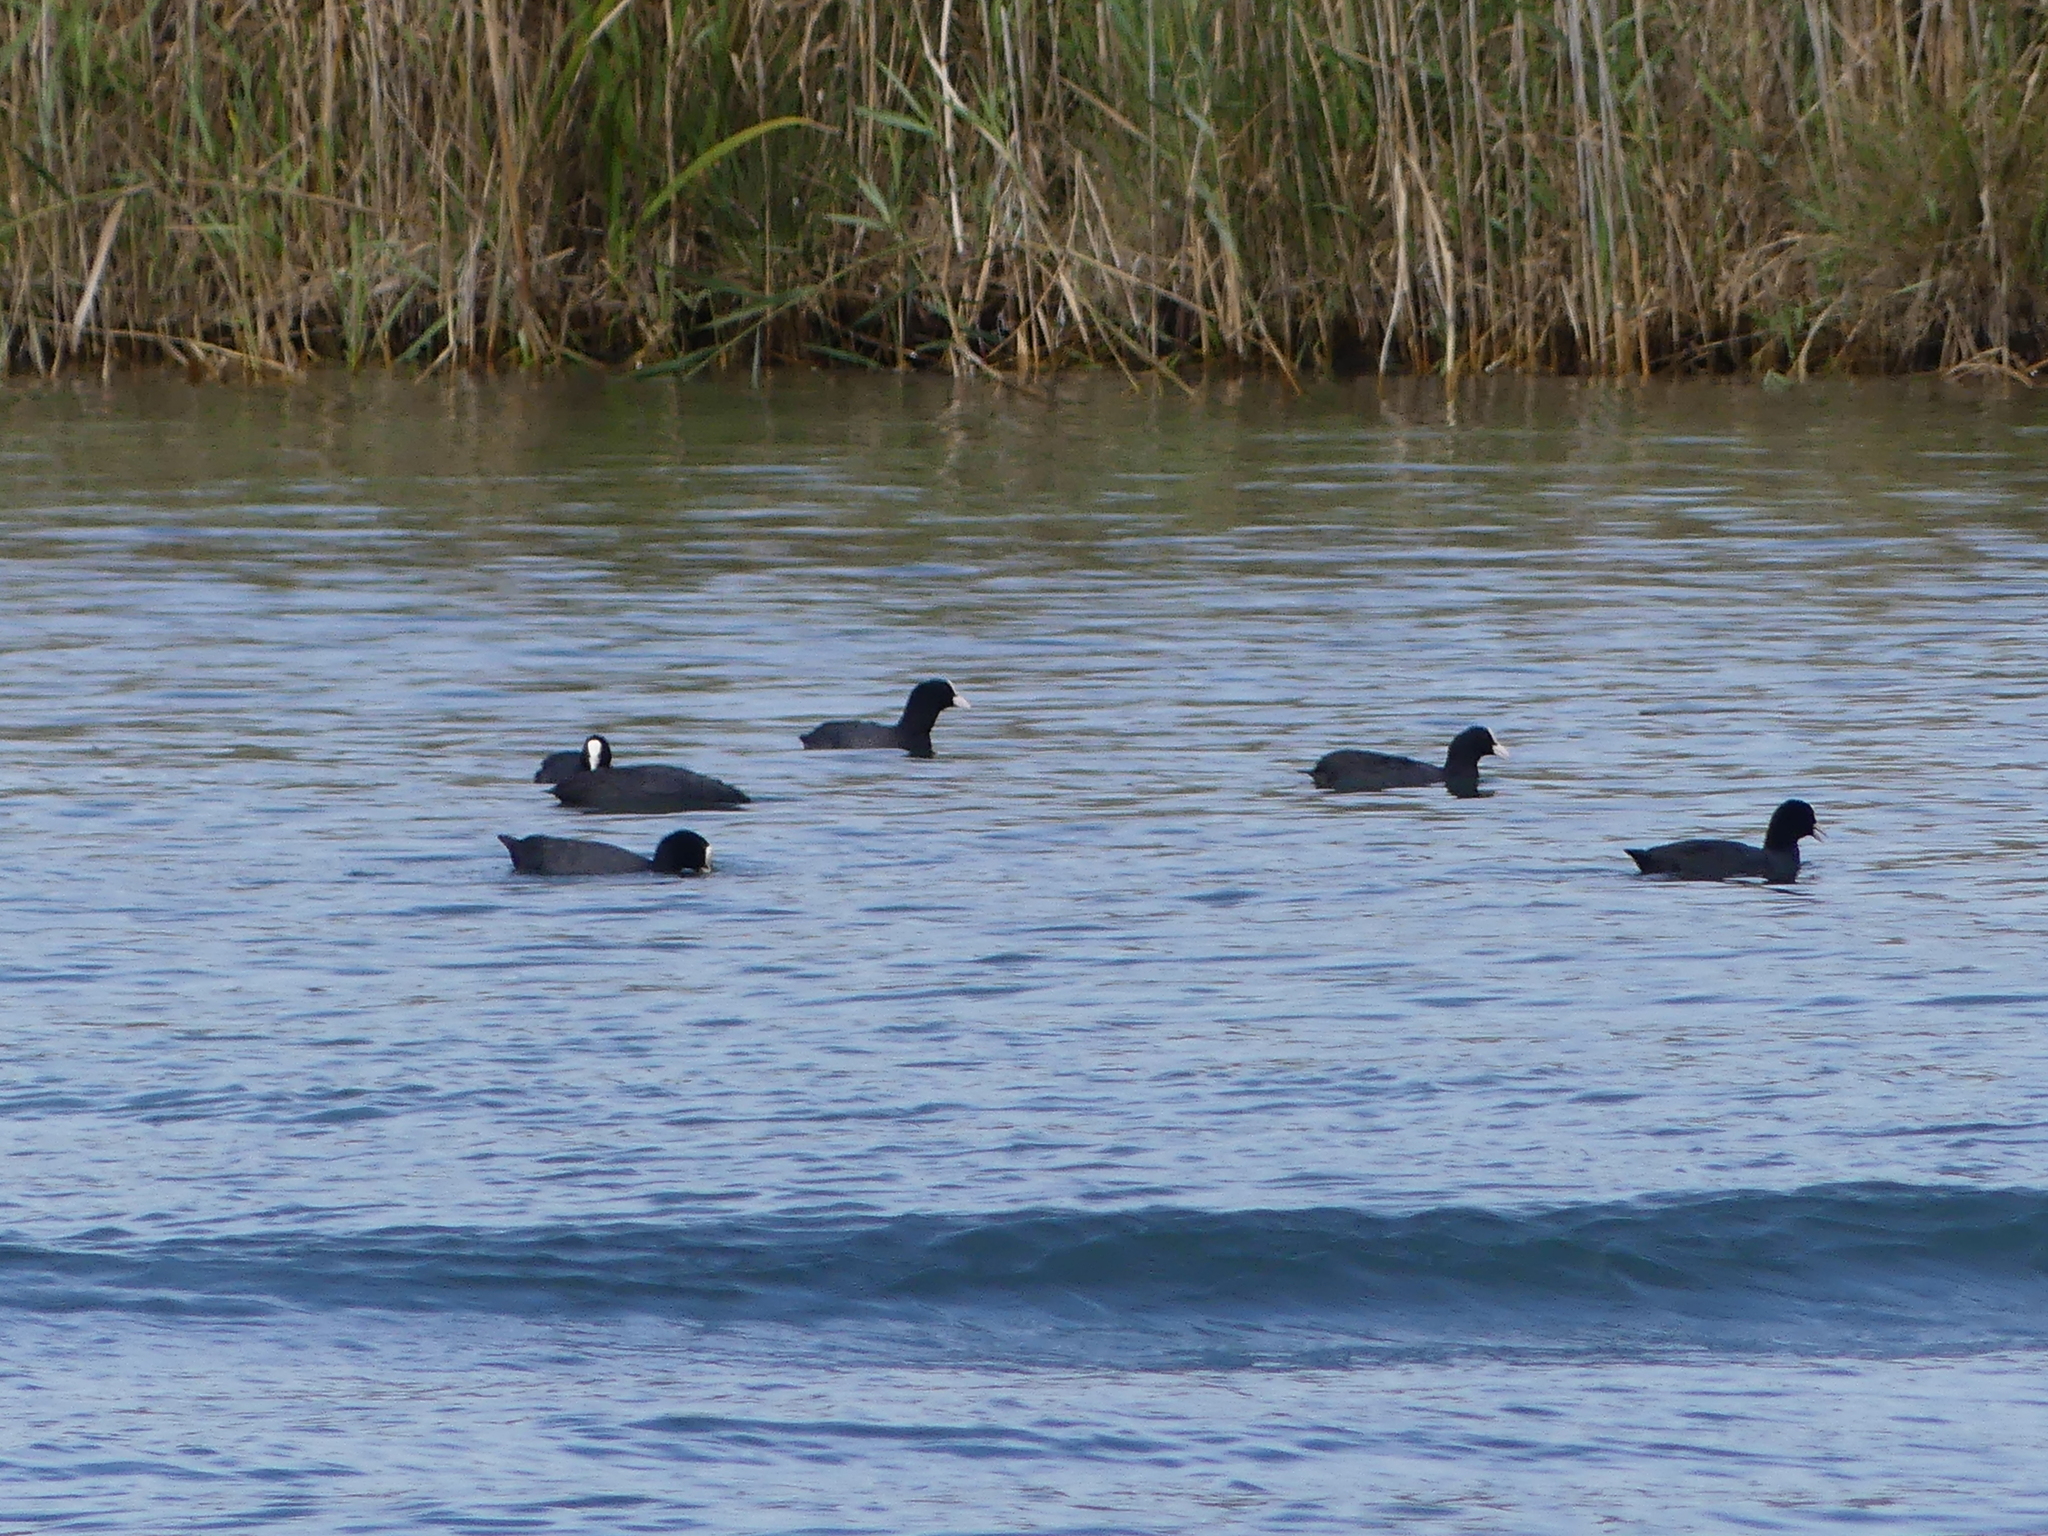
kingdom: Animalia
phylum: Chordata
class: Aves
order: Gruiformes
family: Rallidae
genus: Fulica
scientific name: Fulica atra
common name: Eurasian coot
